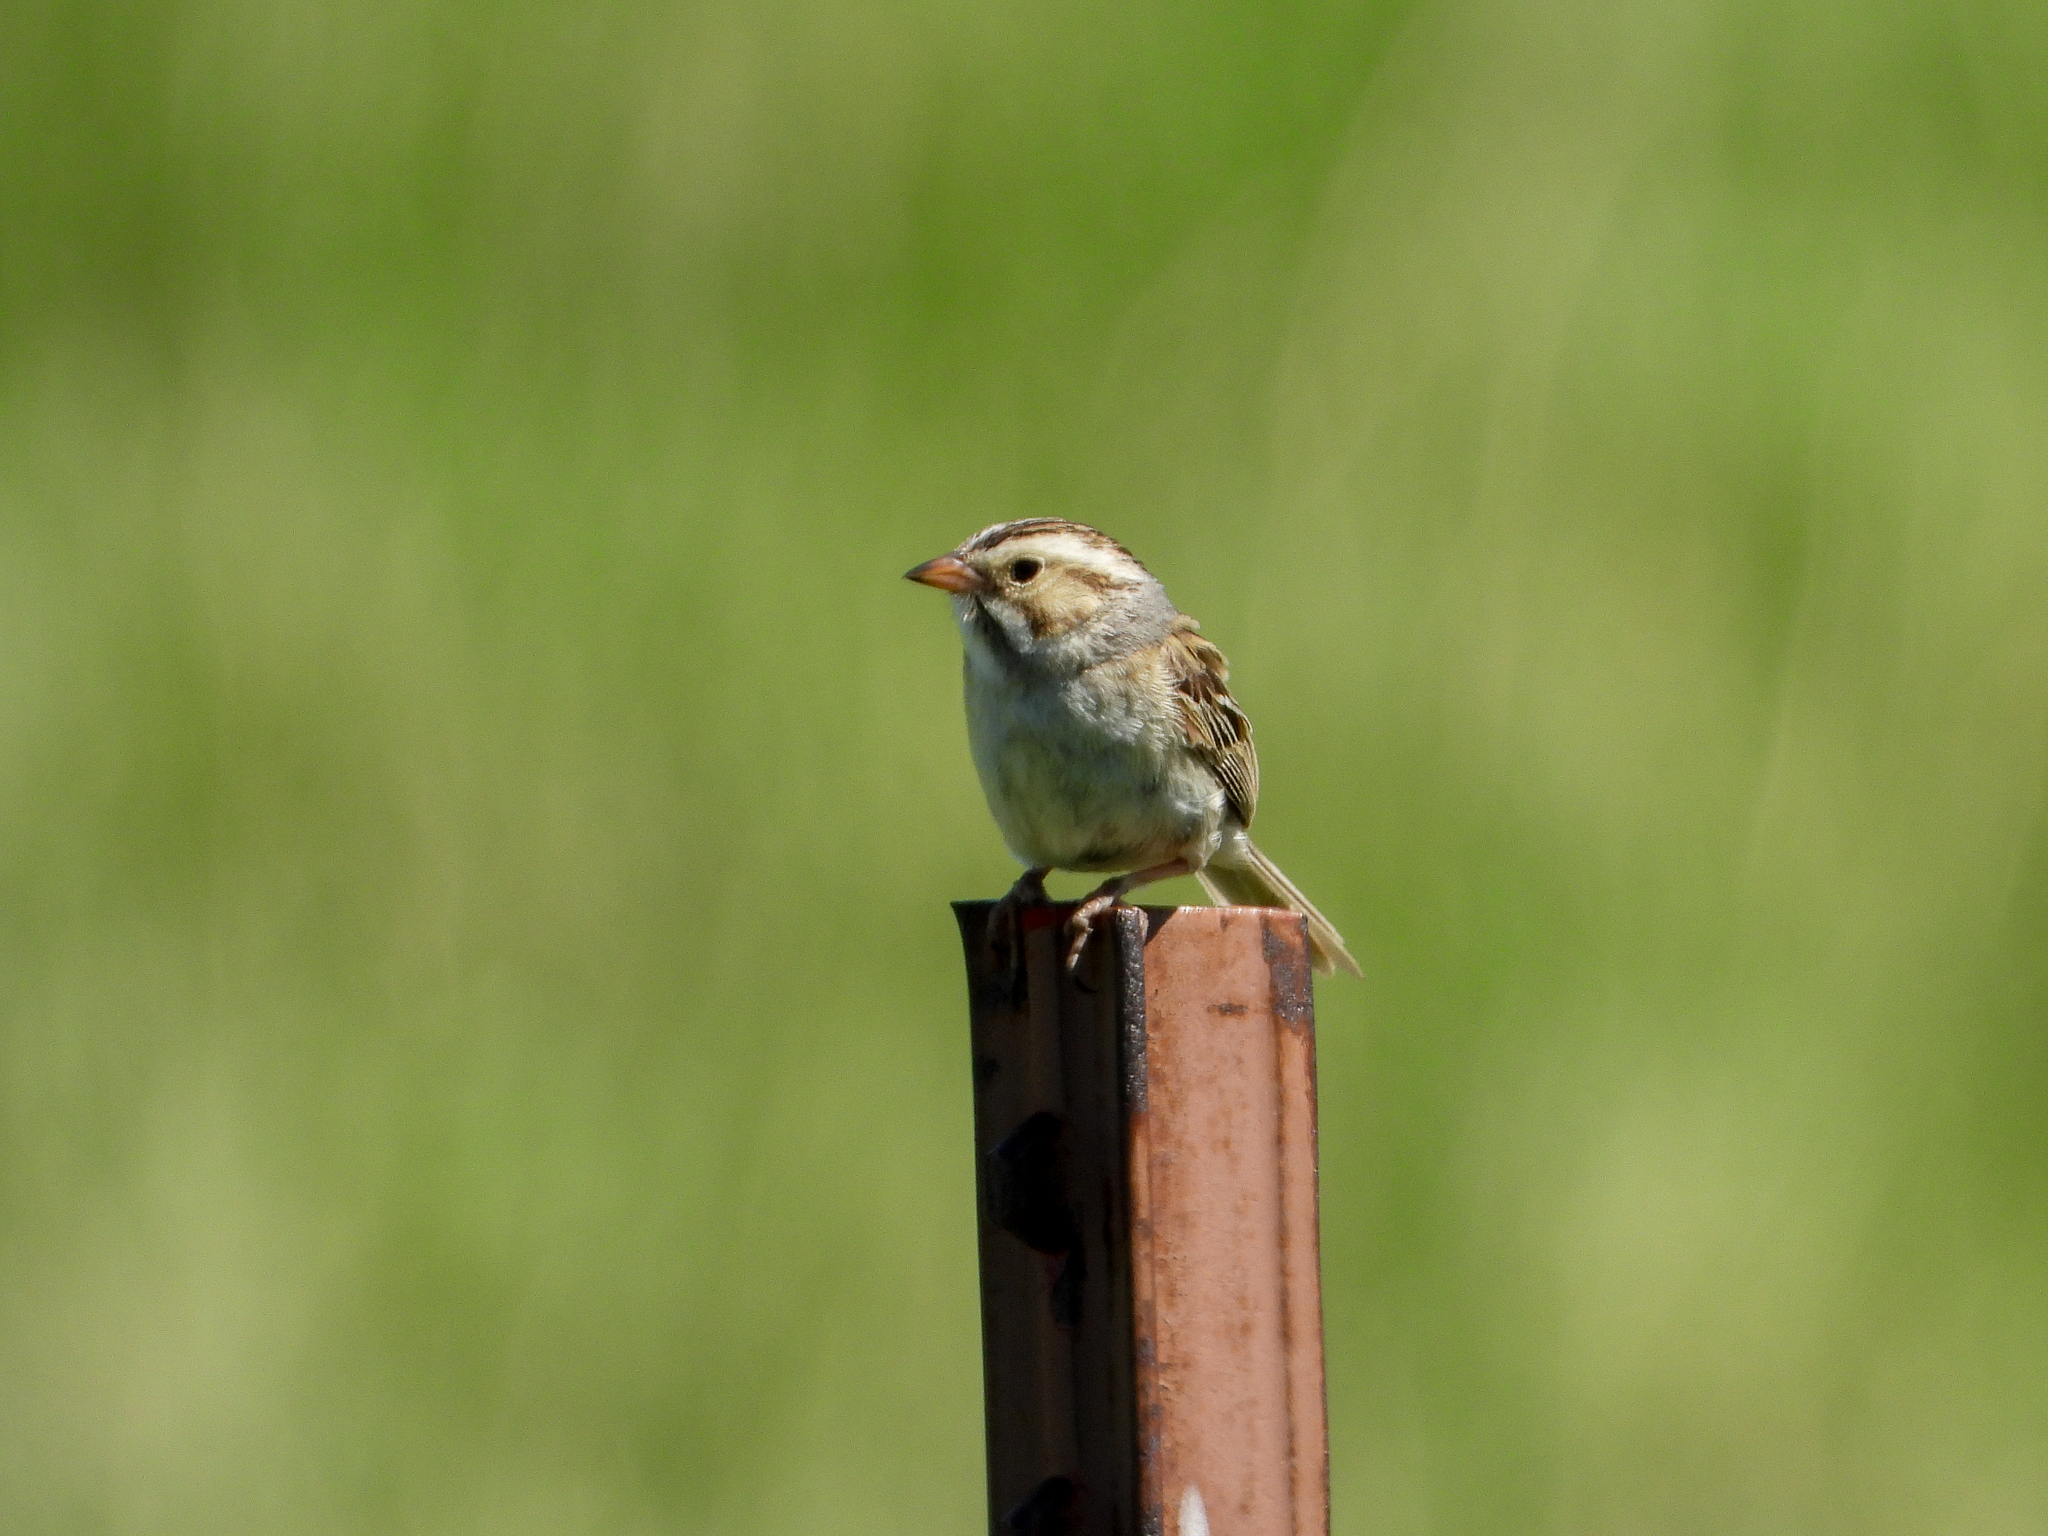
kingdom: Animalia
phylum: Chordata
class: Aves
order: Passeriformes
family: Passerellidae
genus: Spizella
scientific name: Spizella pallida
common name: Clay-colored sparrow
